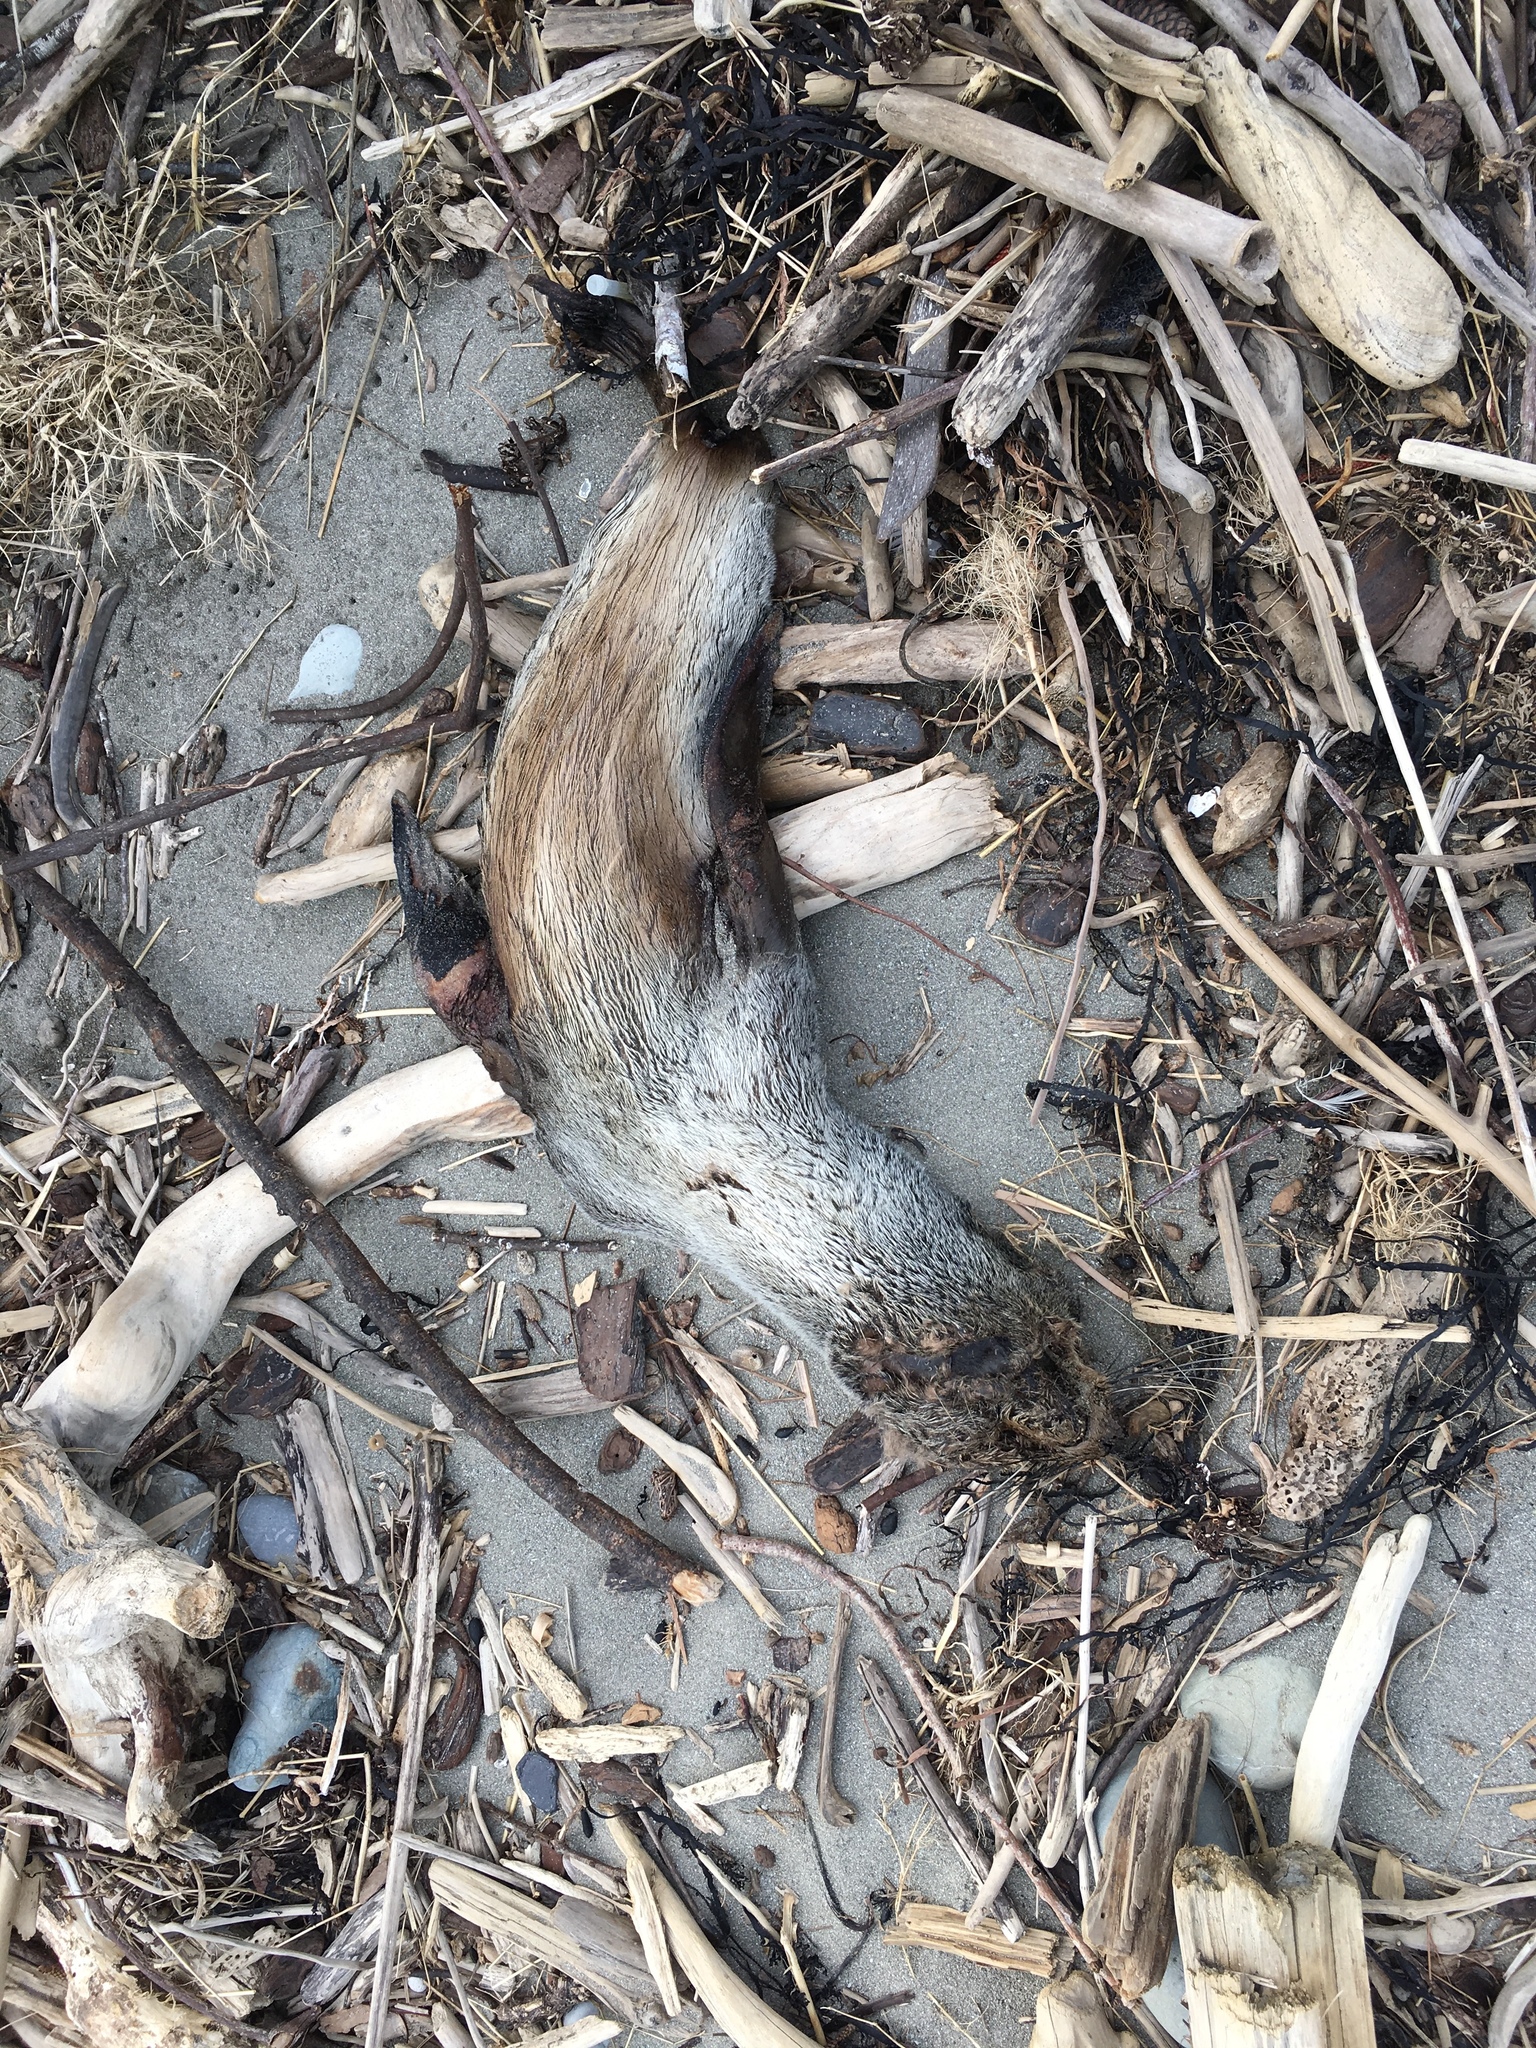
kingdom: Animalia
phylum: Chordata
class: Mammalia
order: Carnivora
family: Otariidae
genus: Arctocephalus
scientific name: Arctocephalus forsteri
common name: New zealand fur seal
